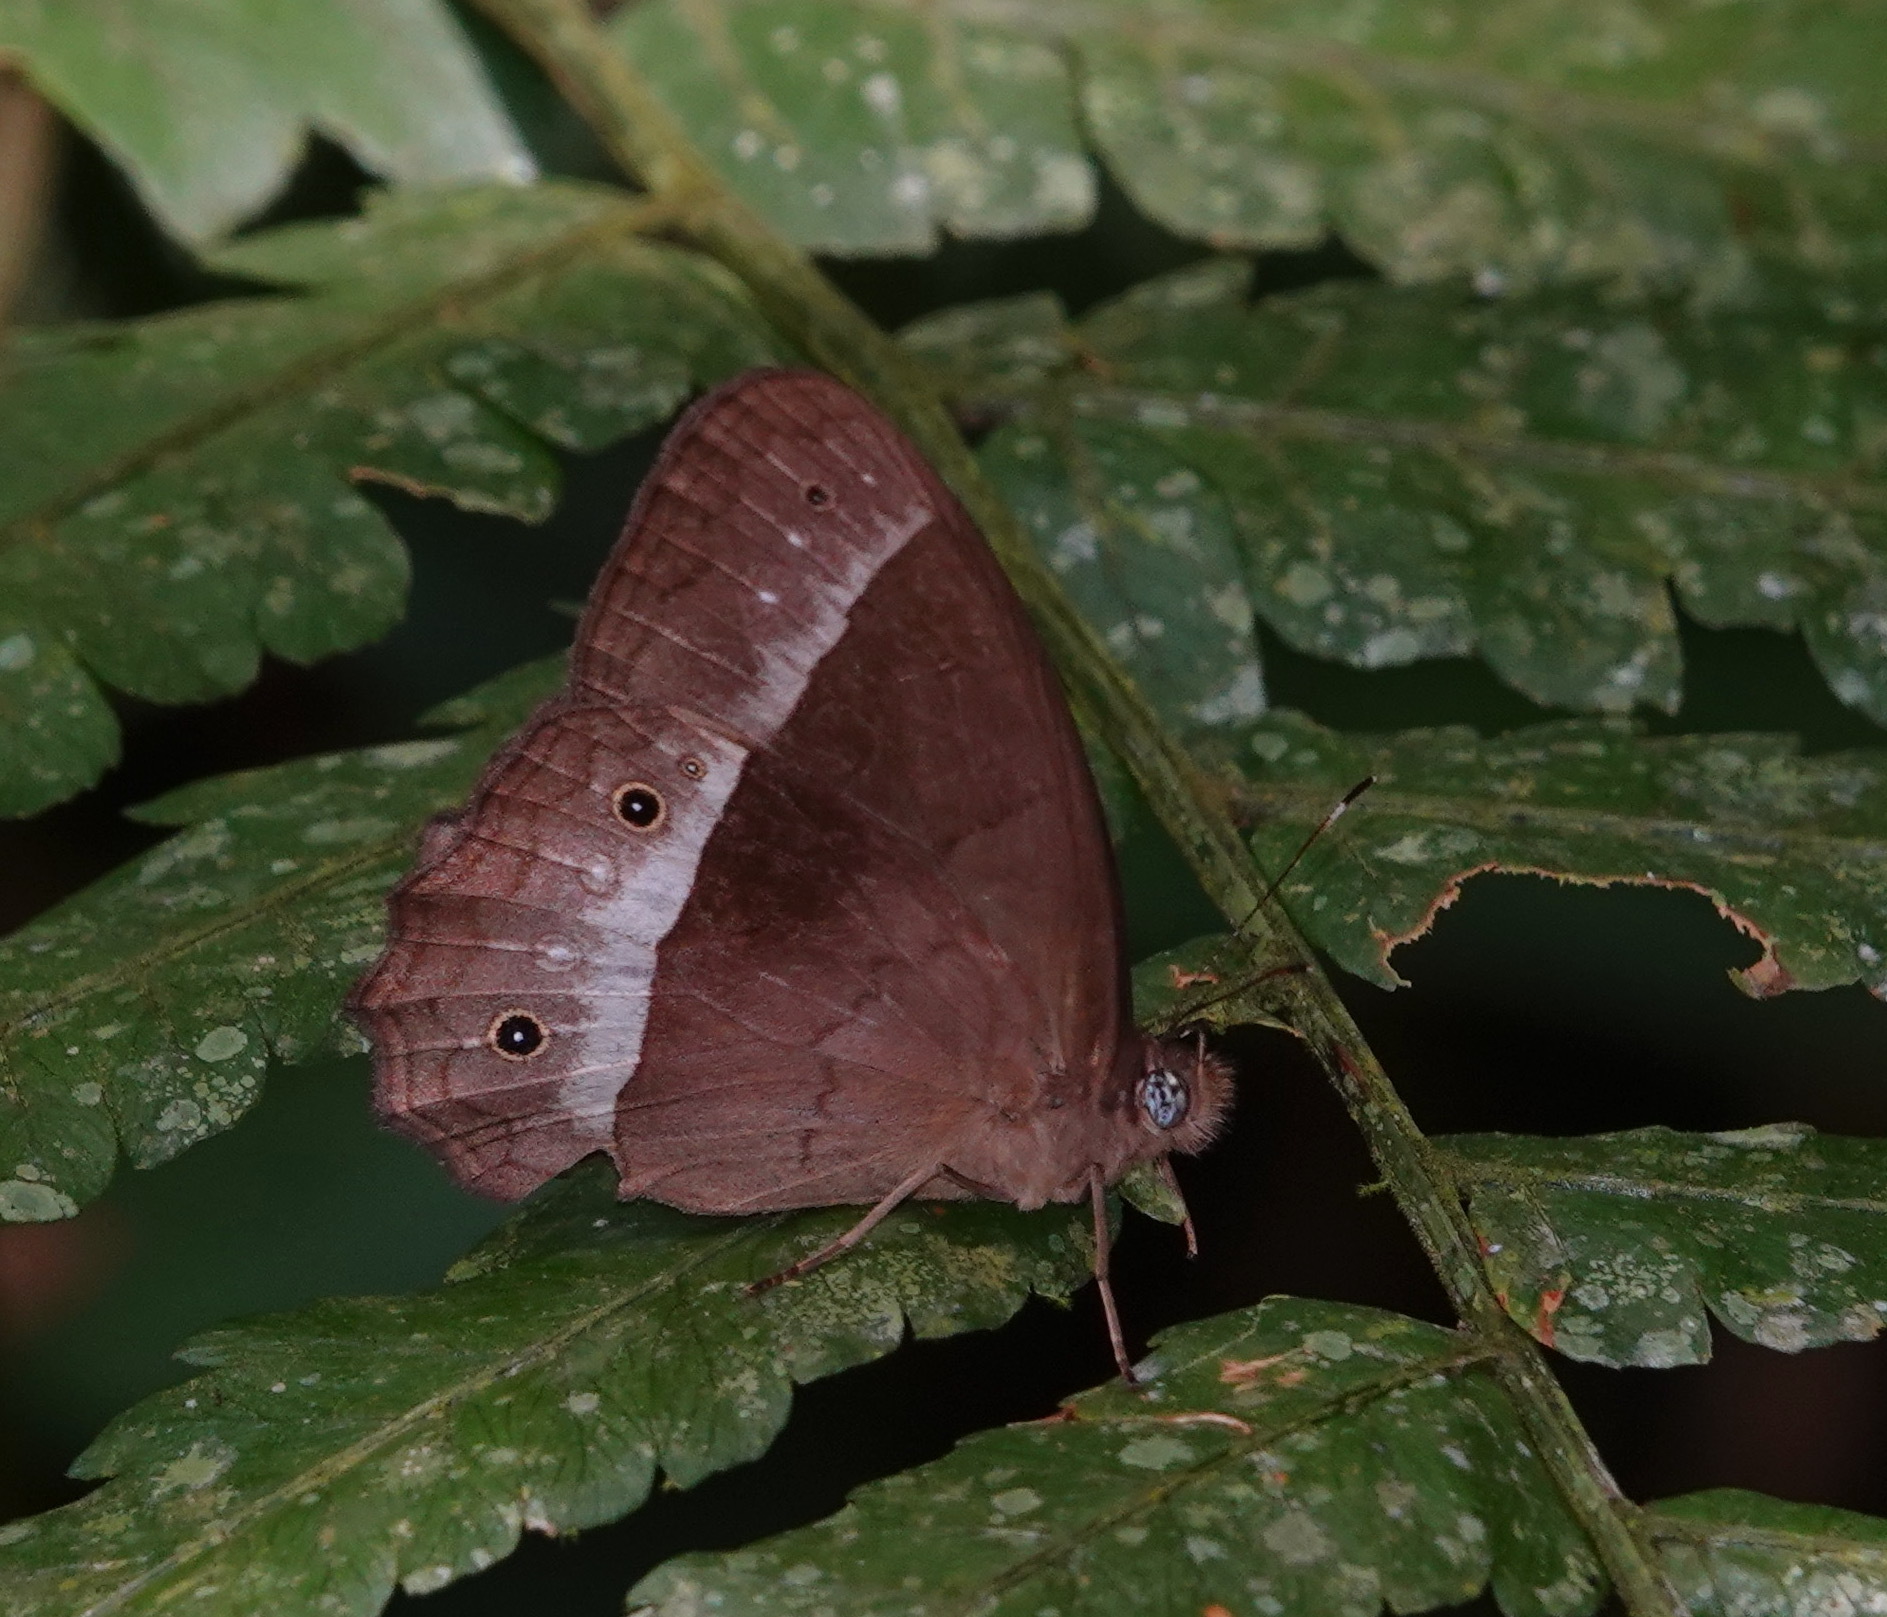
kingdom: Animalia
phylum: Arthropoda
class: Insecta
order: Lepidoptera
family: Nymphalidae
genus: Harjesia
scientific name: Harjesia blanda
